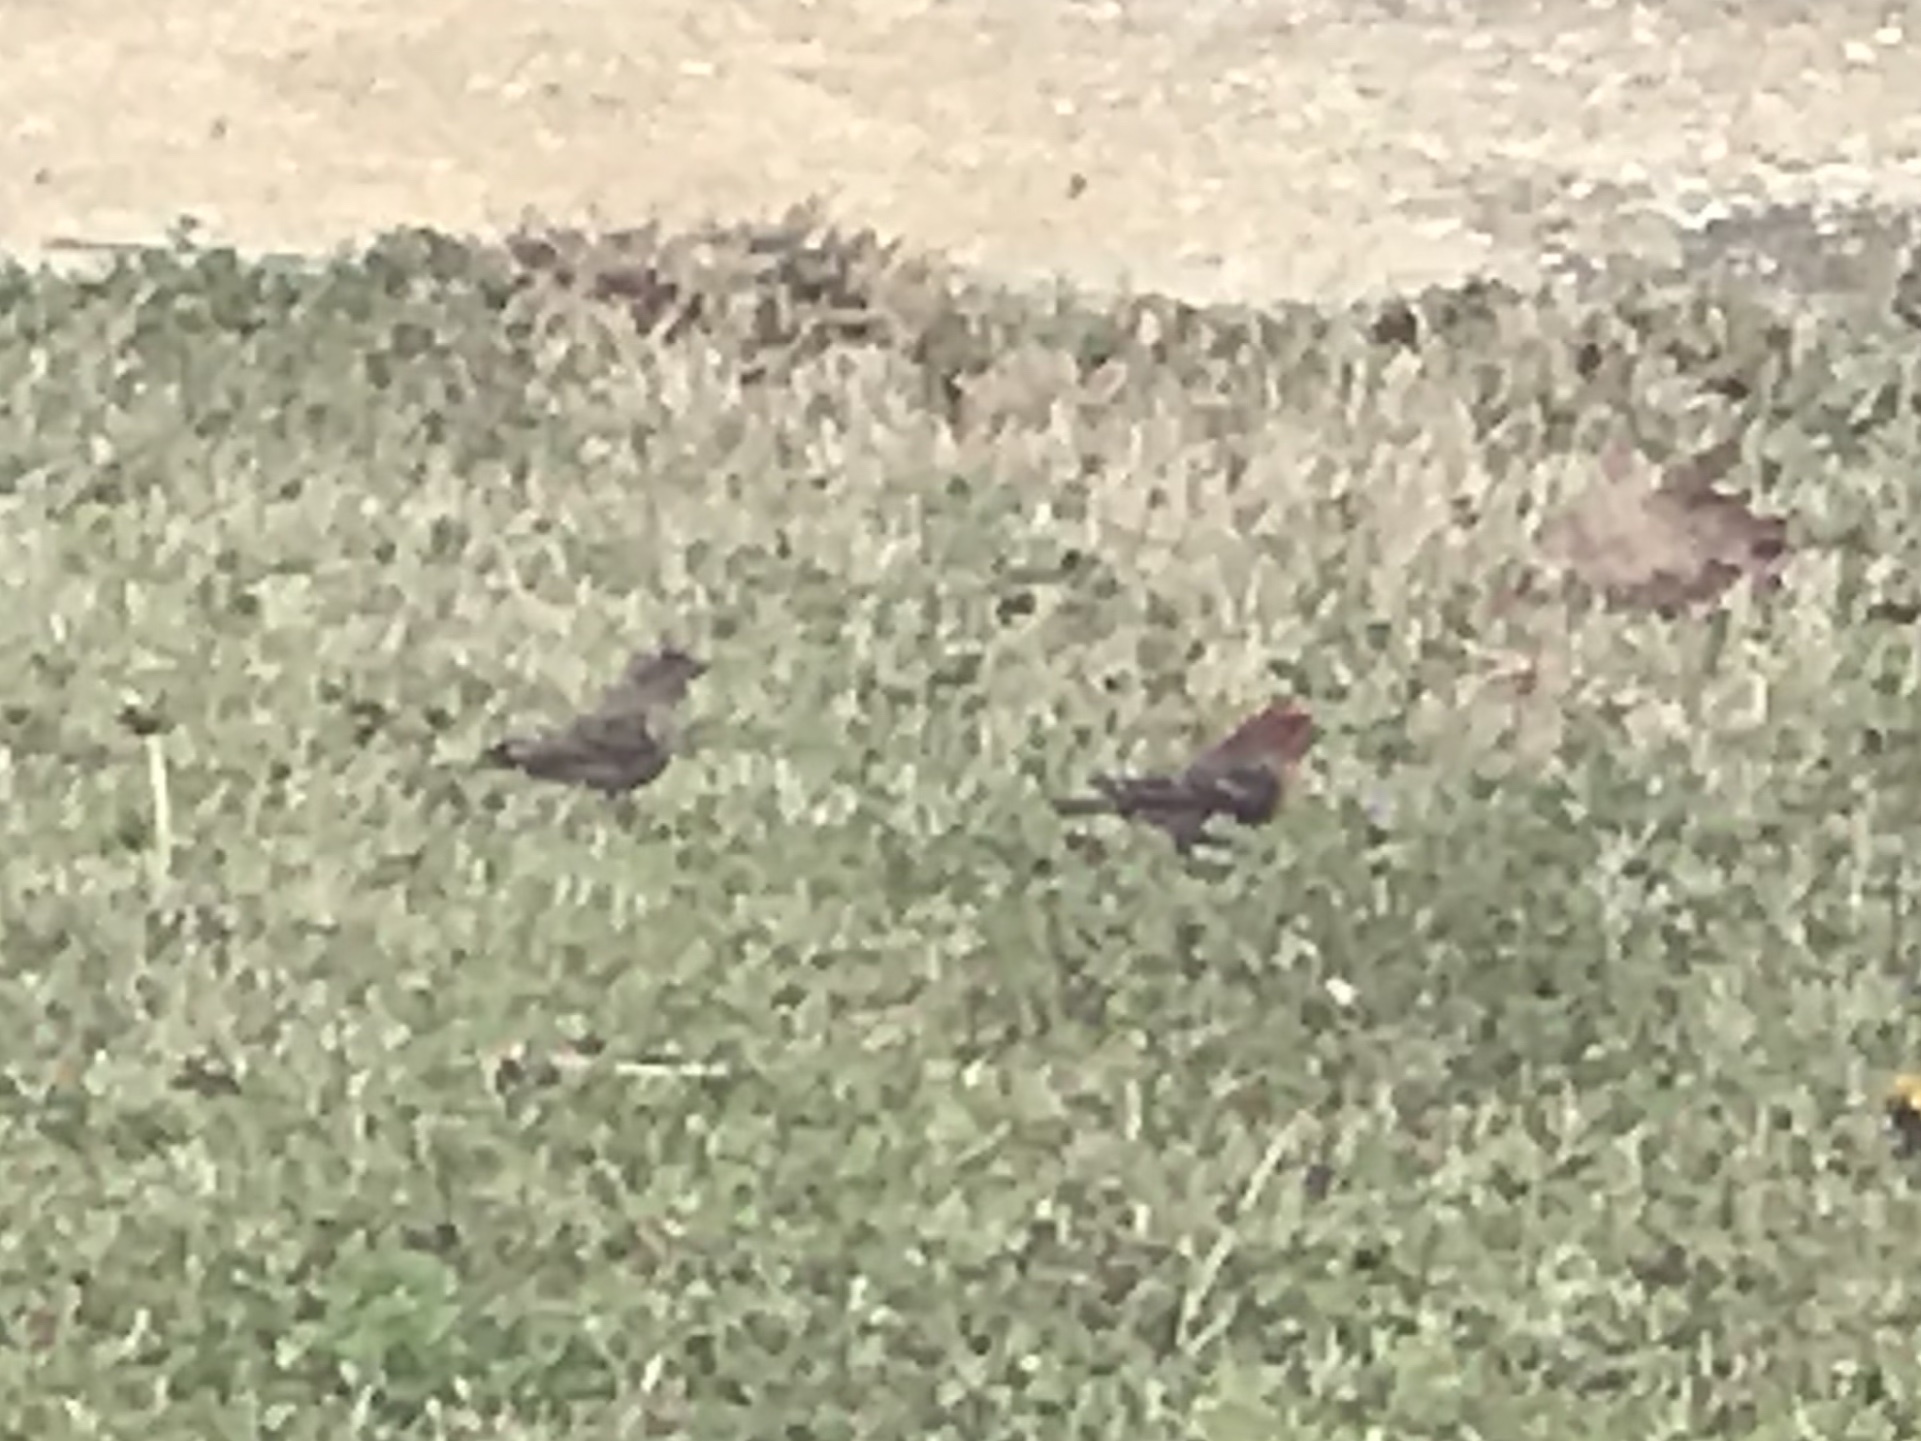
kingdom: Animalia
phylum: Chordata
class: Aves
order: Passeriformes
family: Fringillidae
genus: Haemorhous
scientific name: Haemorhous mexicanus
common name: House finch
